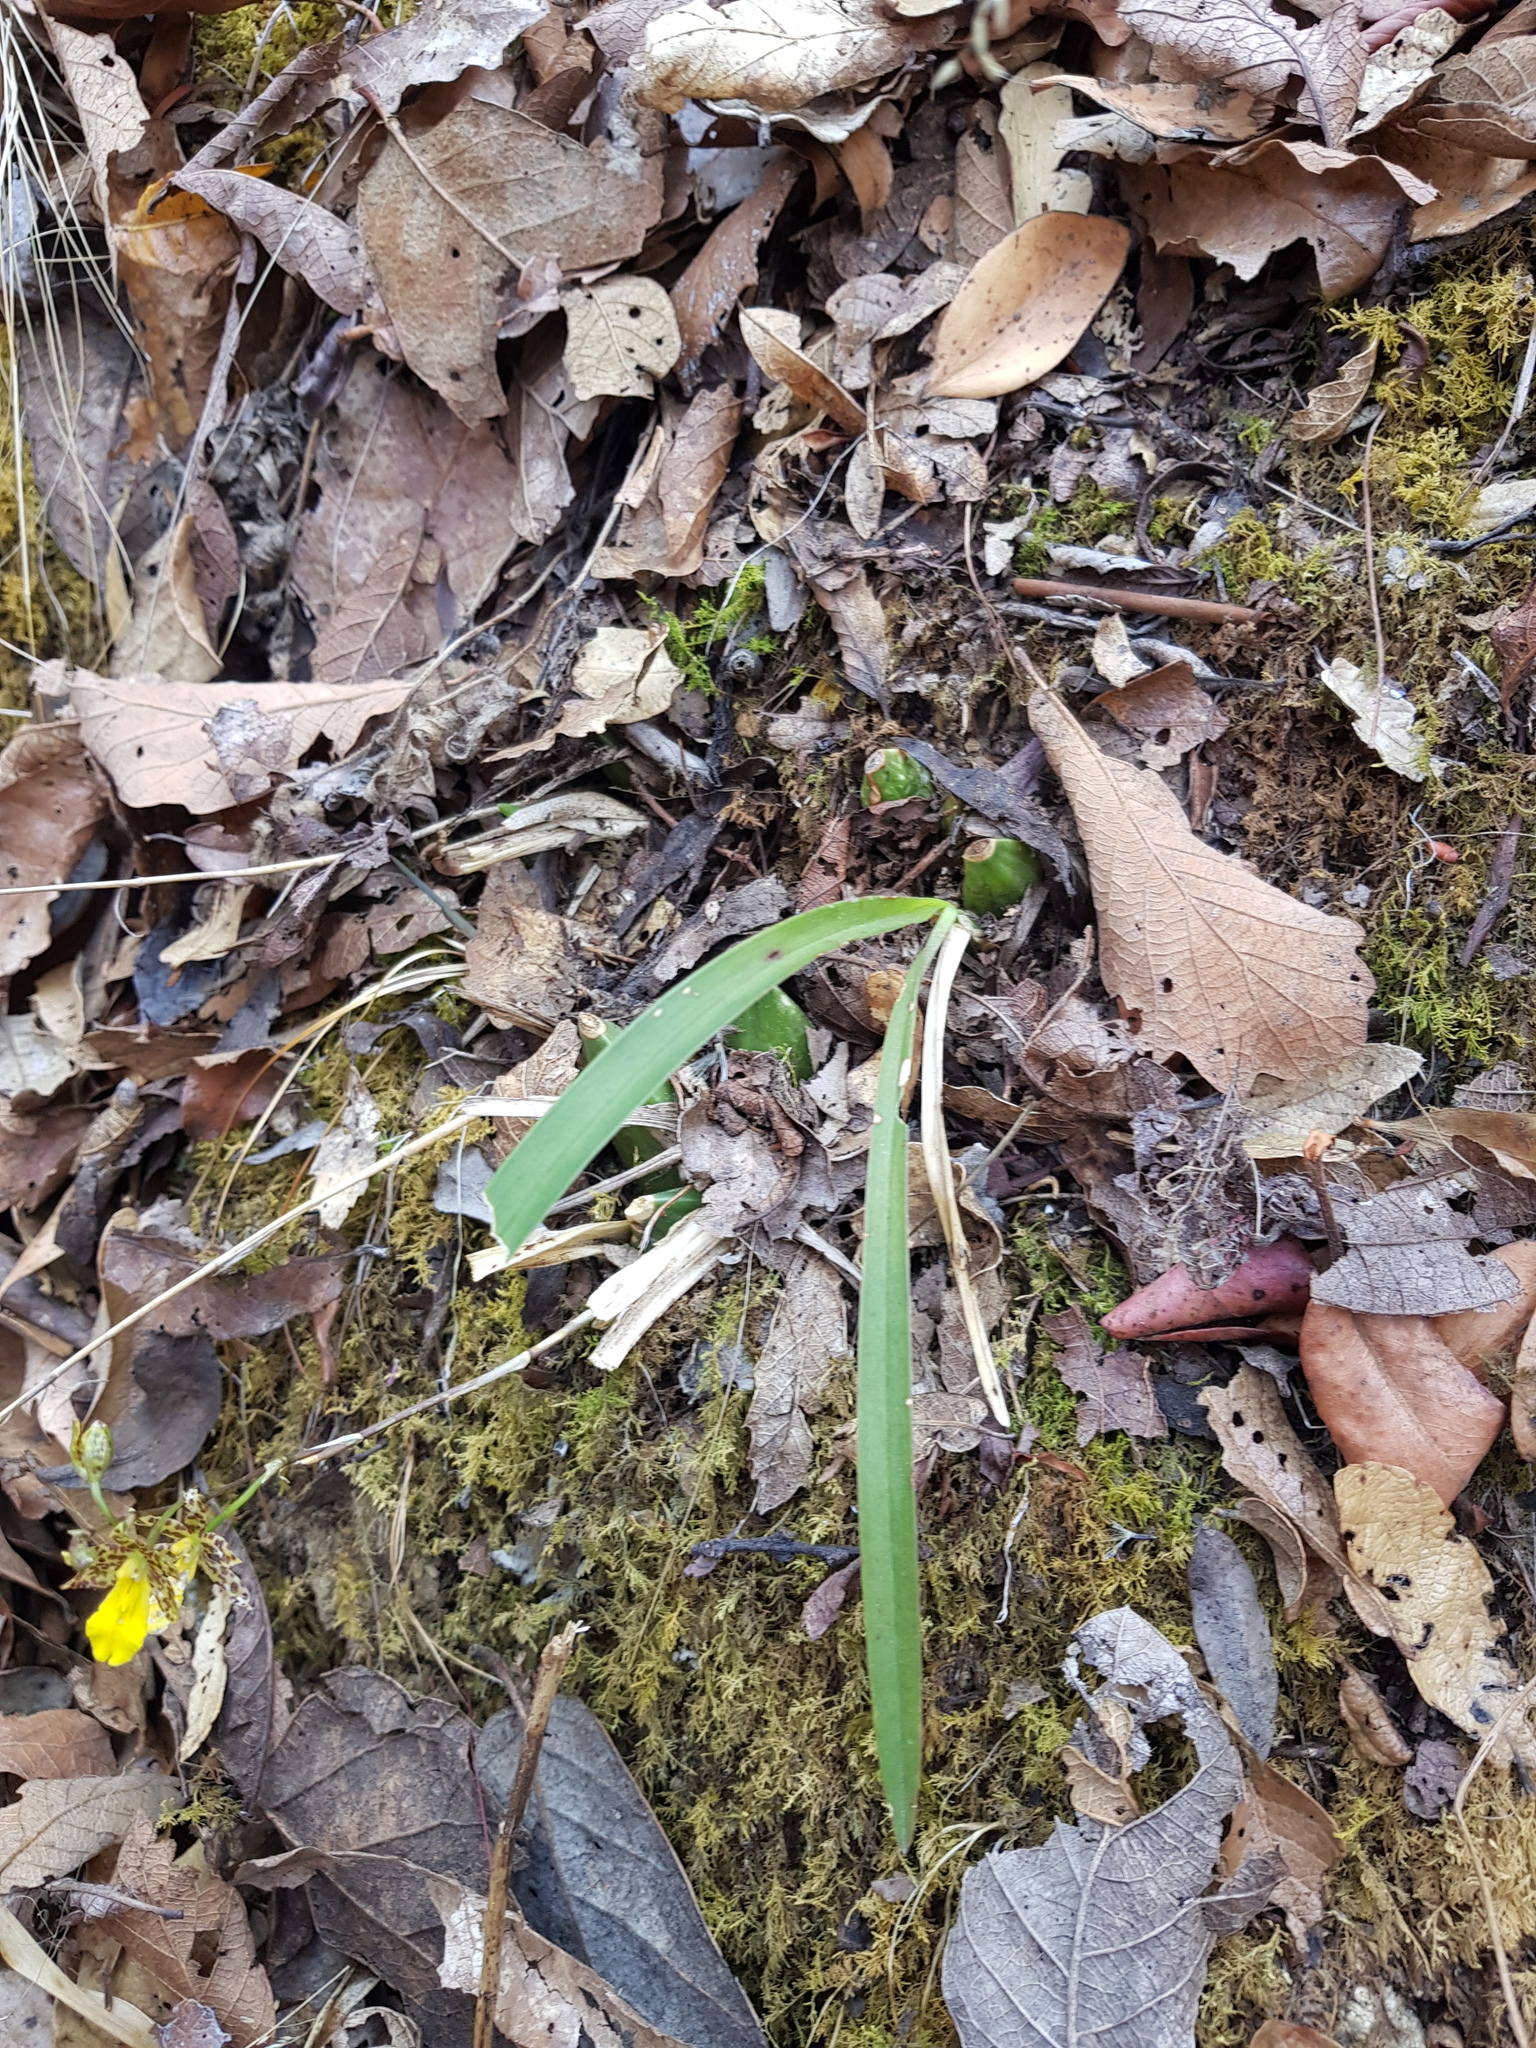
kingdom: Plantae
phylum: Tracheophyta
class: Liliopsida
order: Asparagales
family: Orchidaceae
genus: Oncidium
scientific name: Oncidium graminifolium
